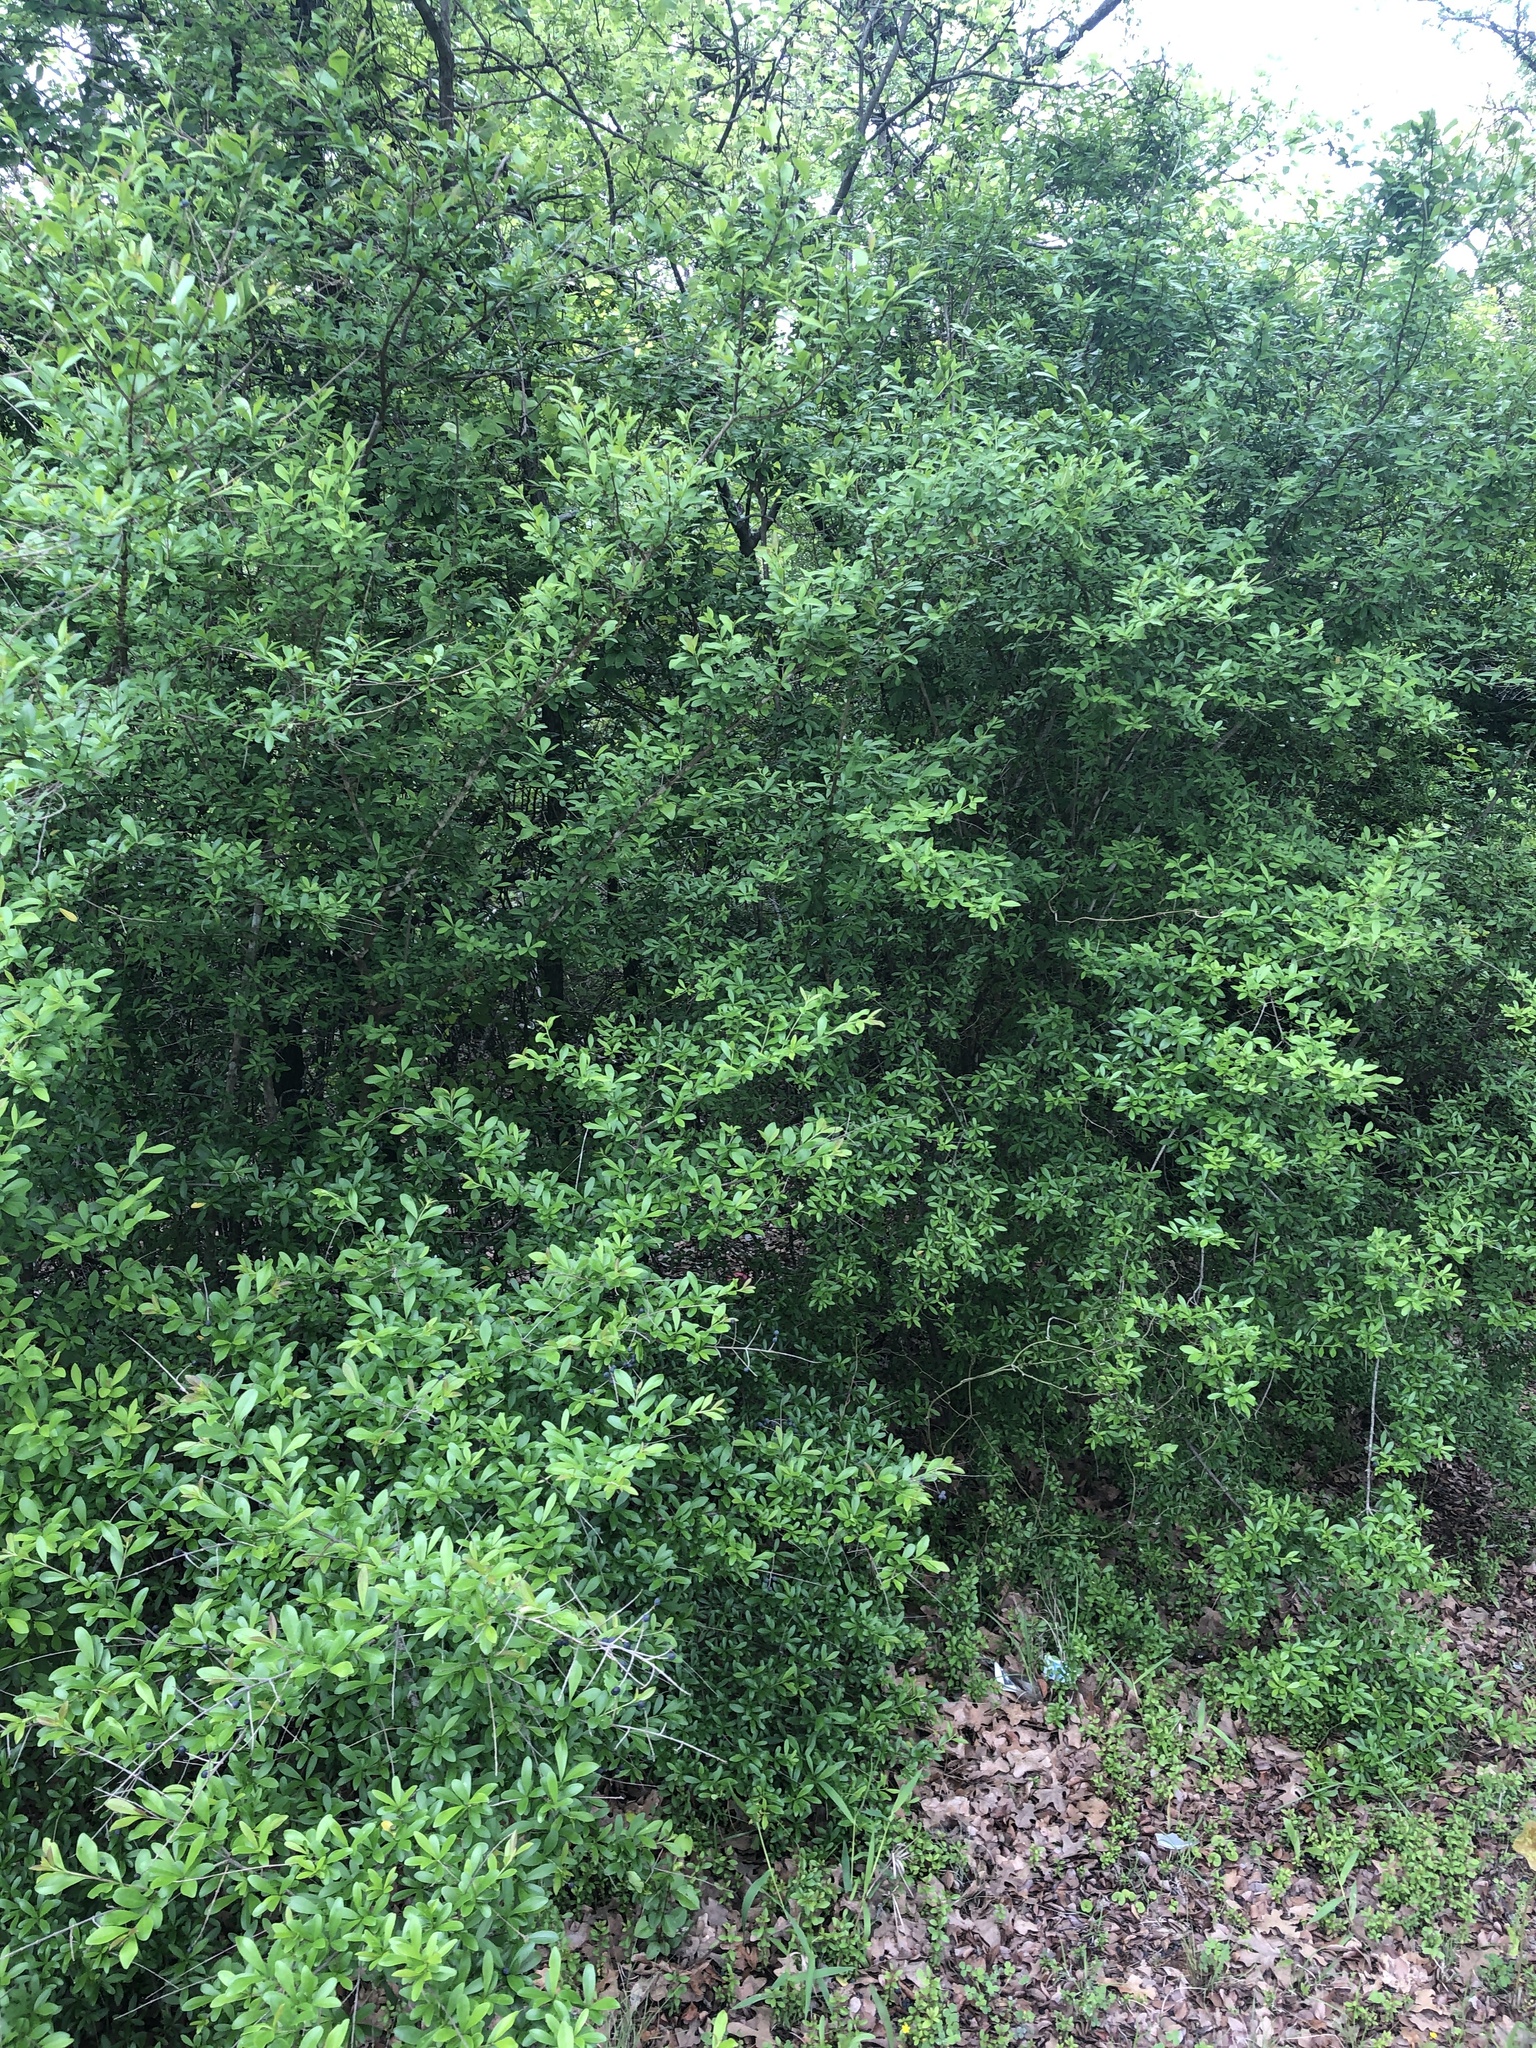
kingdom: Plantae
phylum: Tracheophyta
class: Magnoliopsida
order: Lamiales
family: Oleaceae
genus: Ligustrum
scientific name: Ligustrum quihoui
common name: Waxyleaf privet
